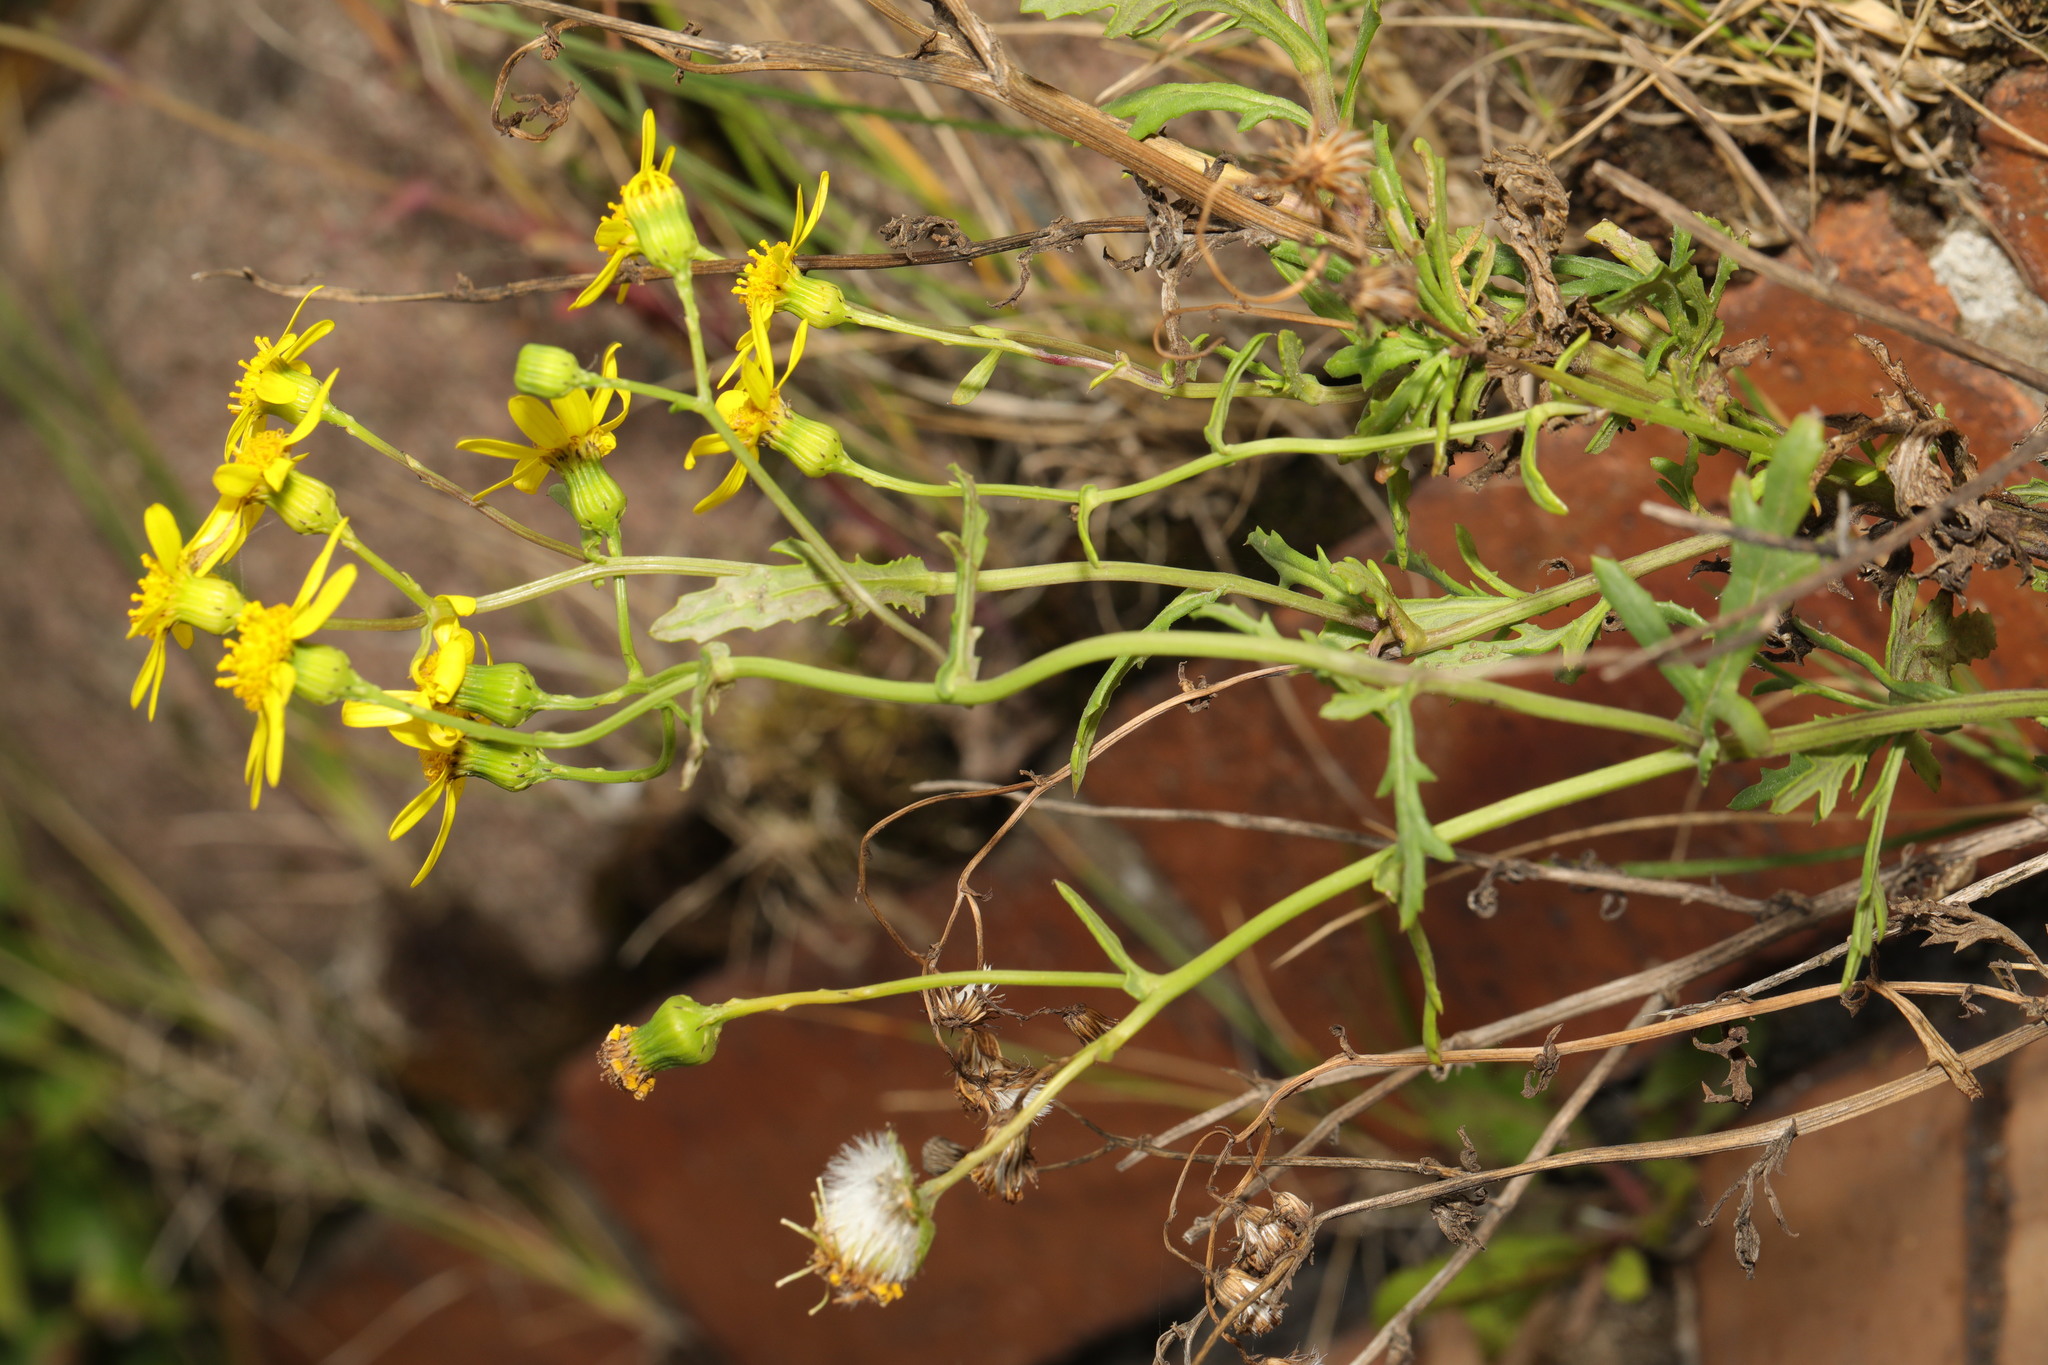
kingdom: Plantae
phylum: Tracheophyta
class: Magnoliopsida
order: Asterales
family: Asteraceae
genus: Senecio
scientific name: Senecio squalidus
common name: Oxford ragwort
